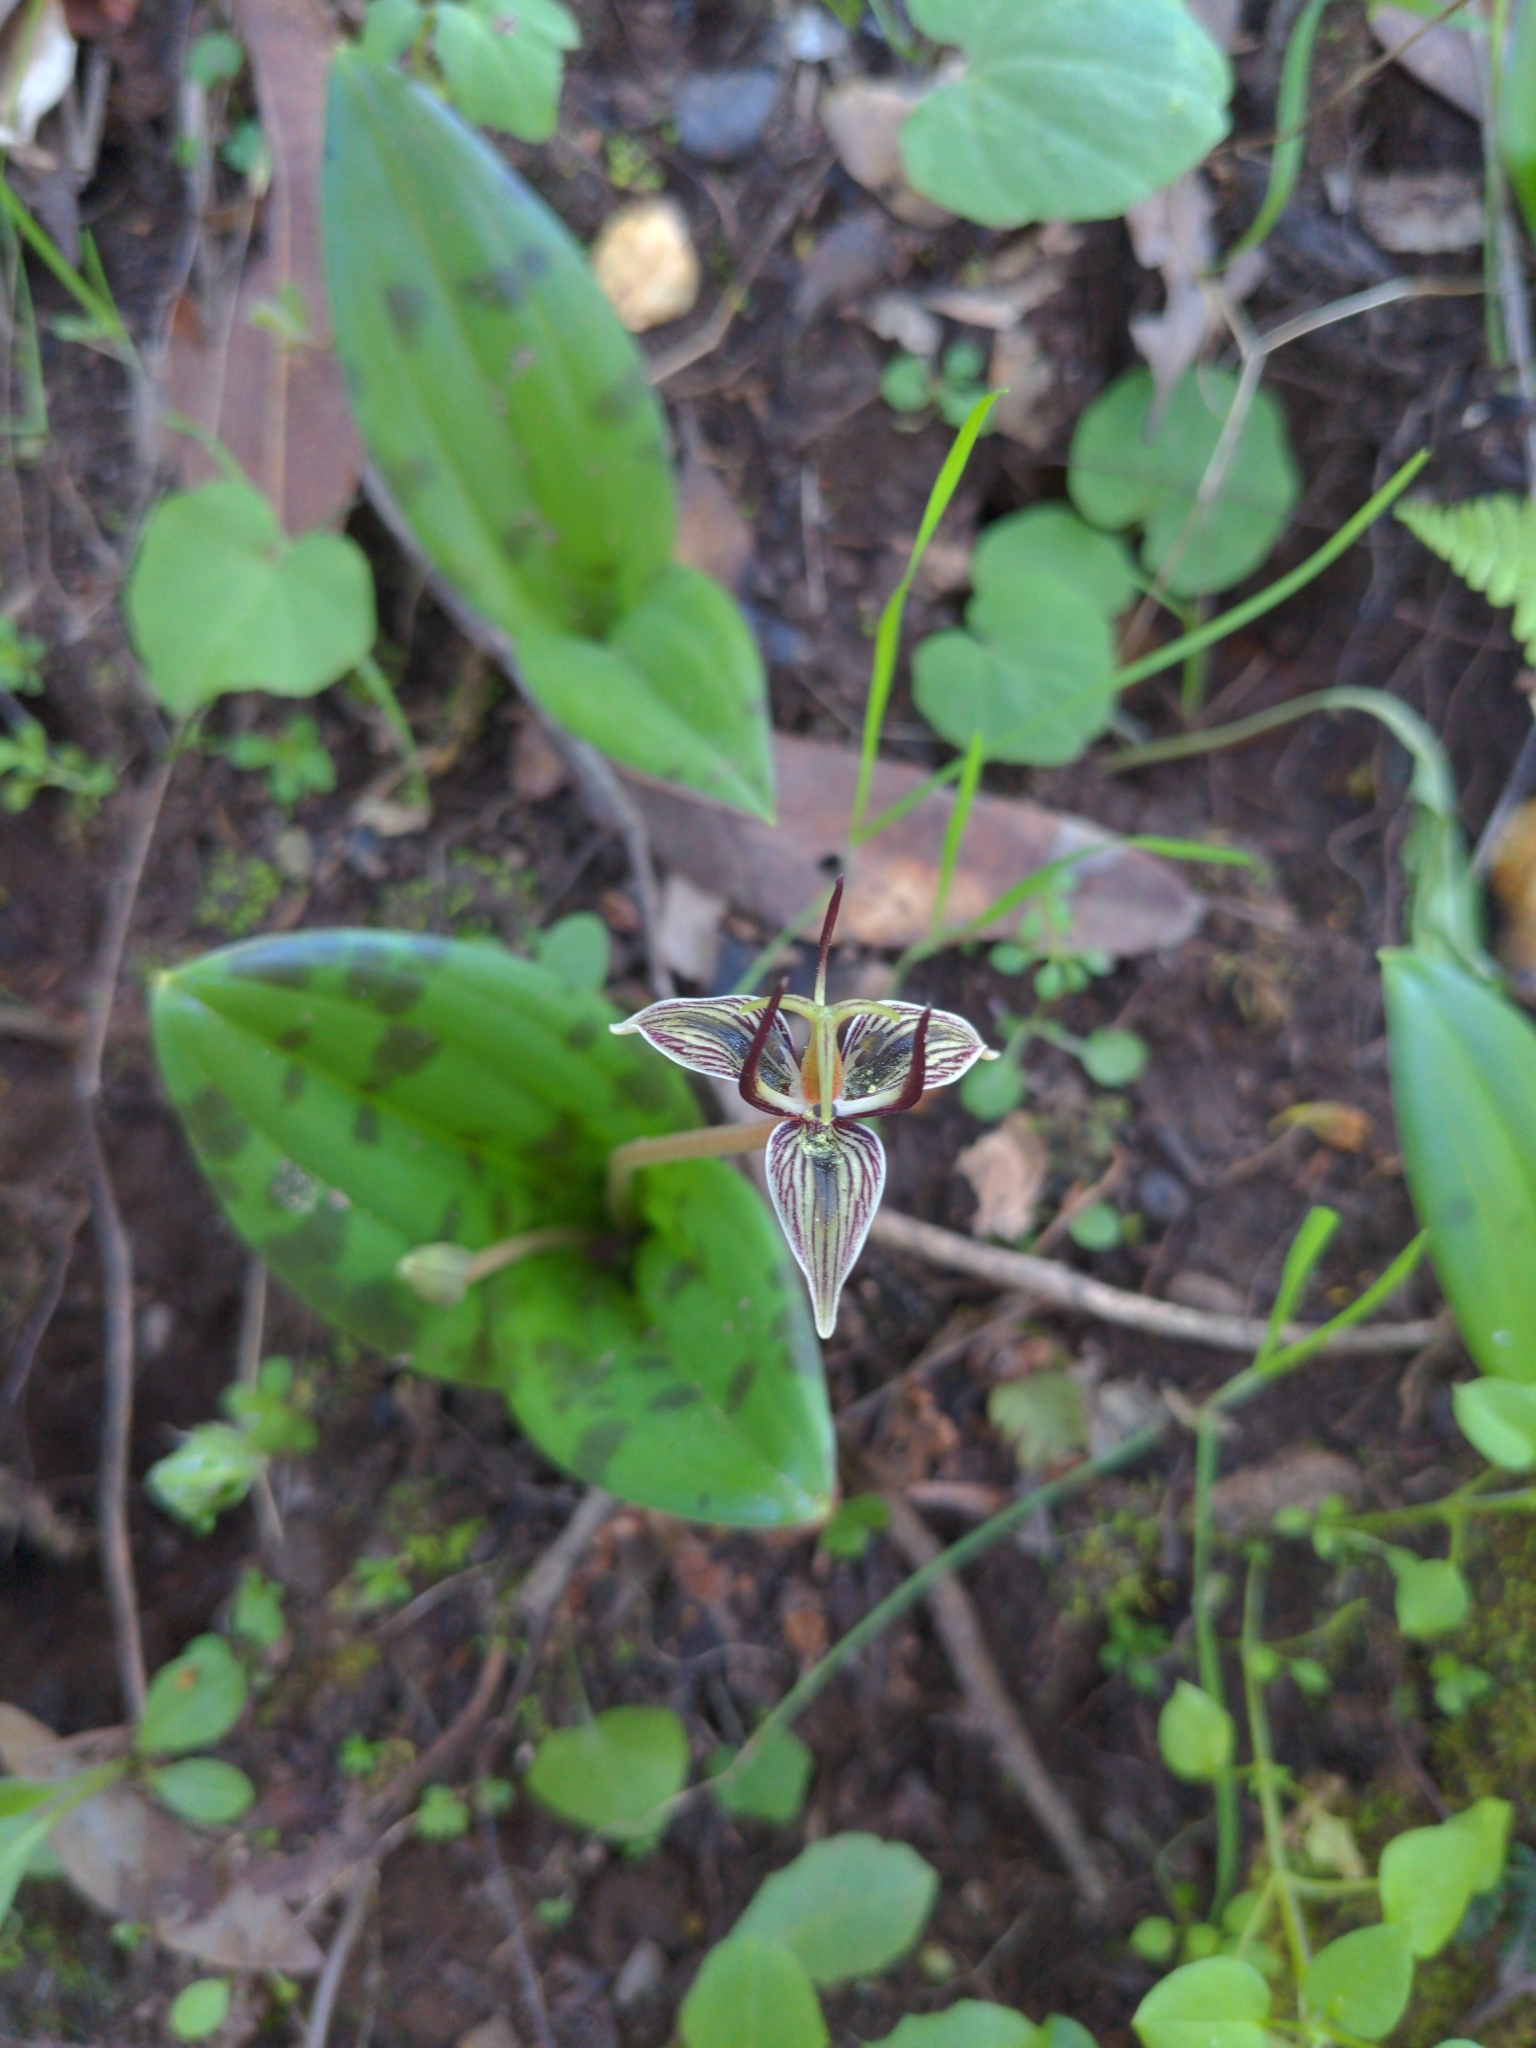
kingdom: Plantae
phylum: Tracheophyta
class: Liliopsida
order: Liliales
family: Liliaceae
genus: Scoliopus
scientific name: Scoliopus bigelovii
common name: Foetid adder's-tongue
